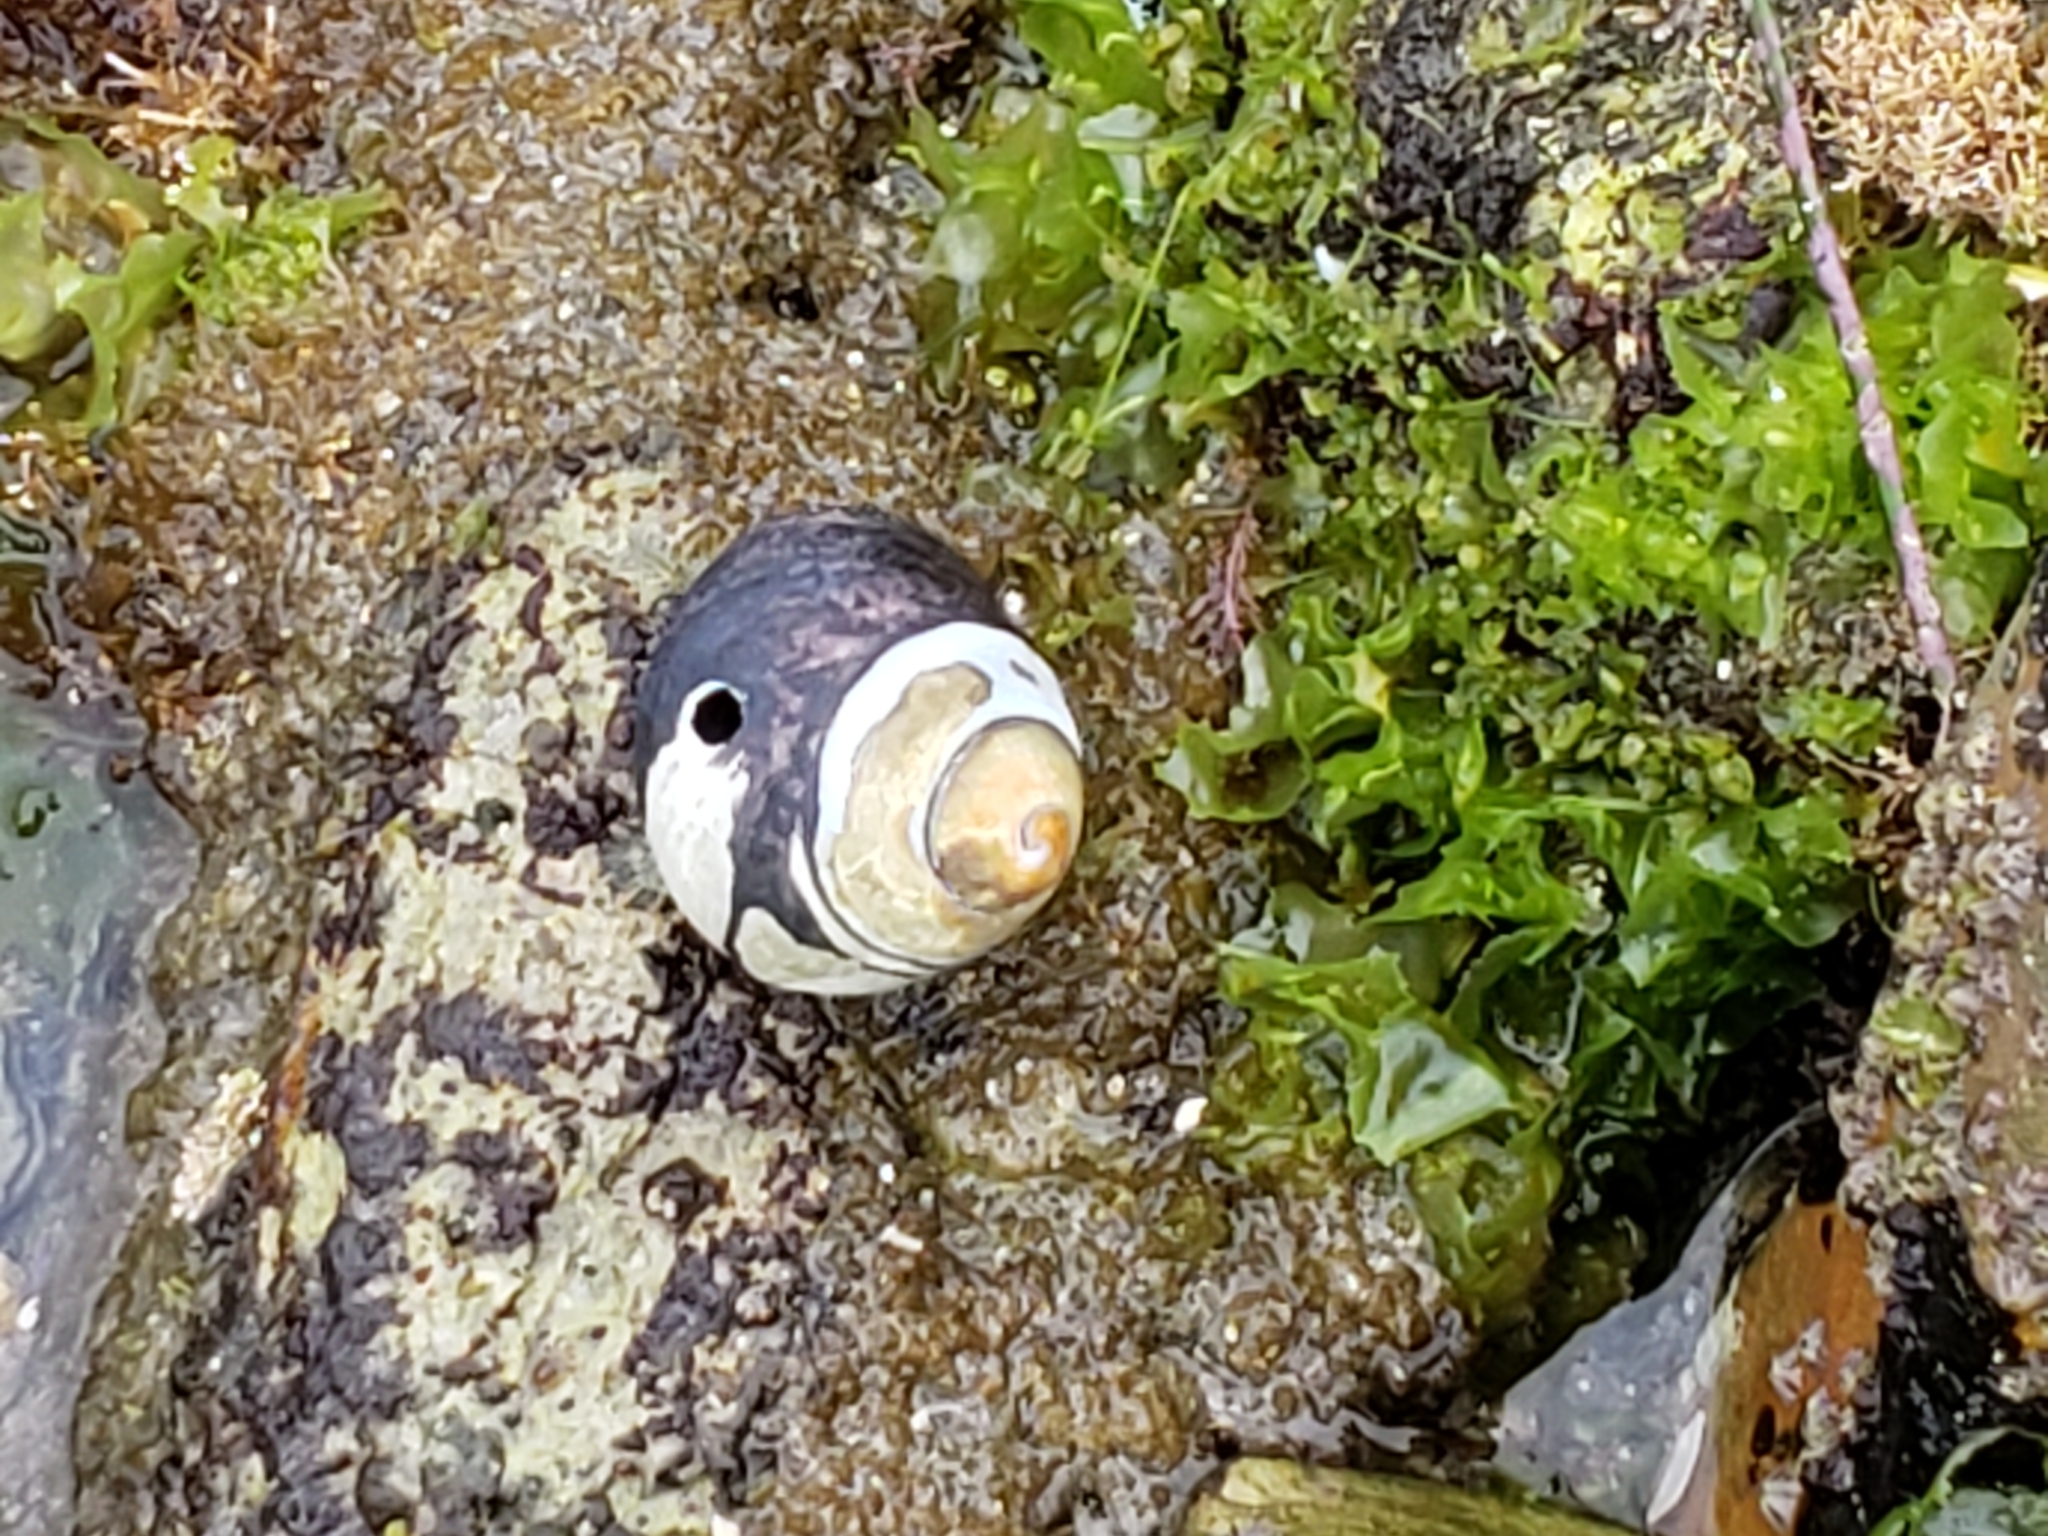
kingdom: Animalia
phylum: Mollusca
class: Gastropoda
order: Trochida
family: Tegulidae
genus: Tegula
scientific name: Tegula funebralis
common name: Black tegula
